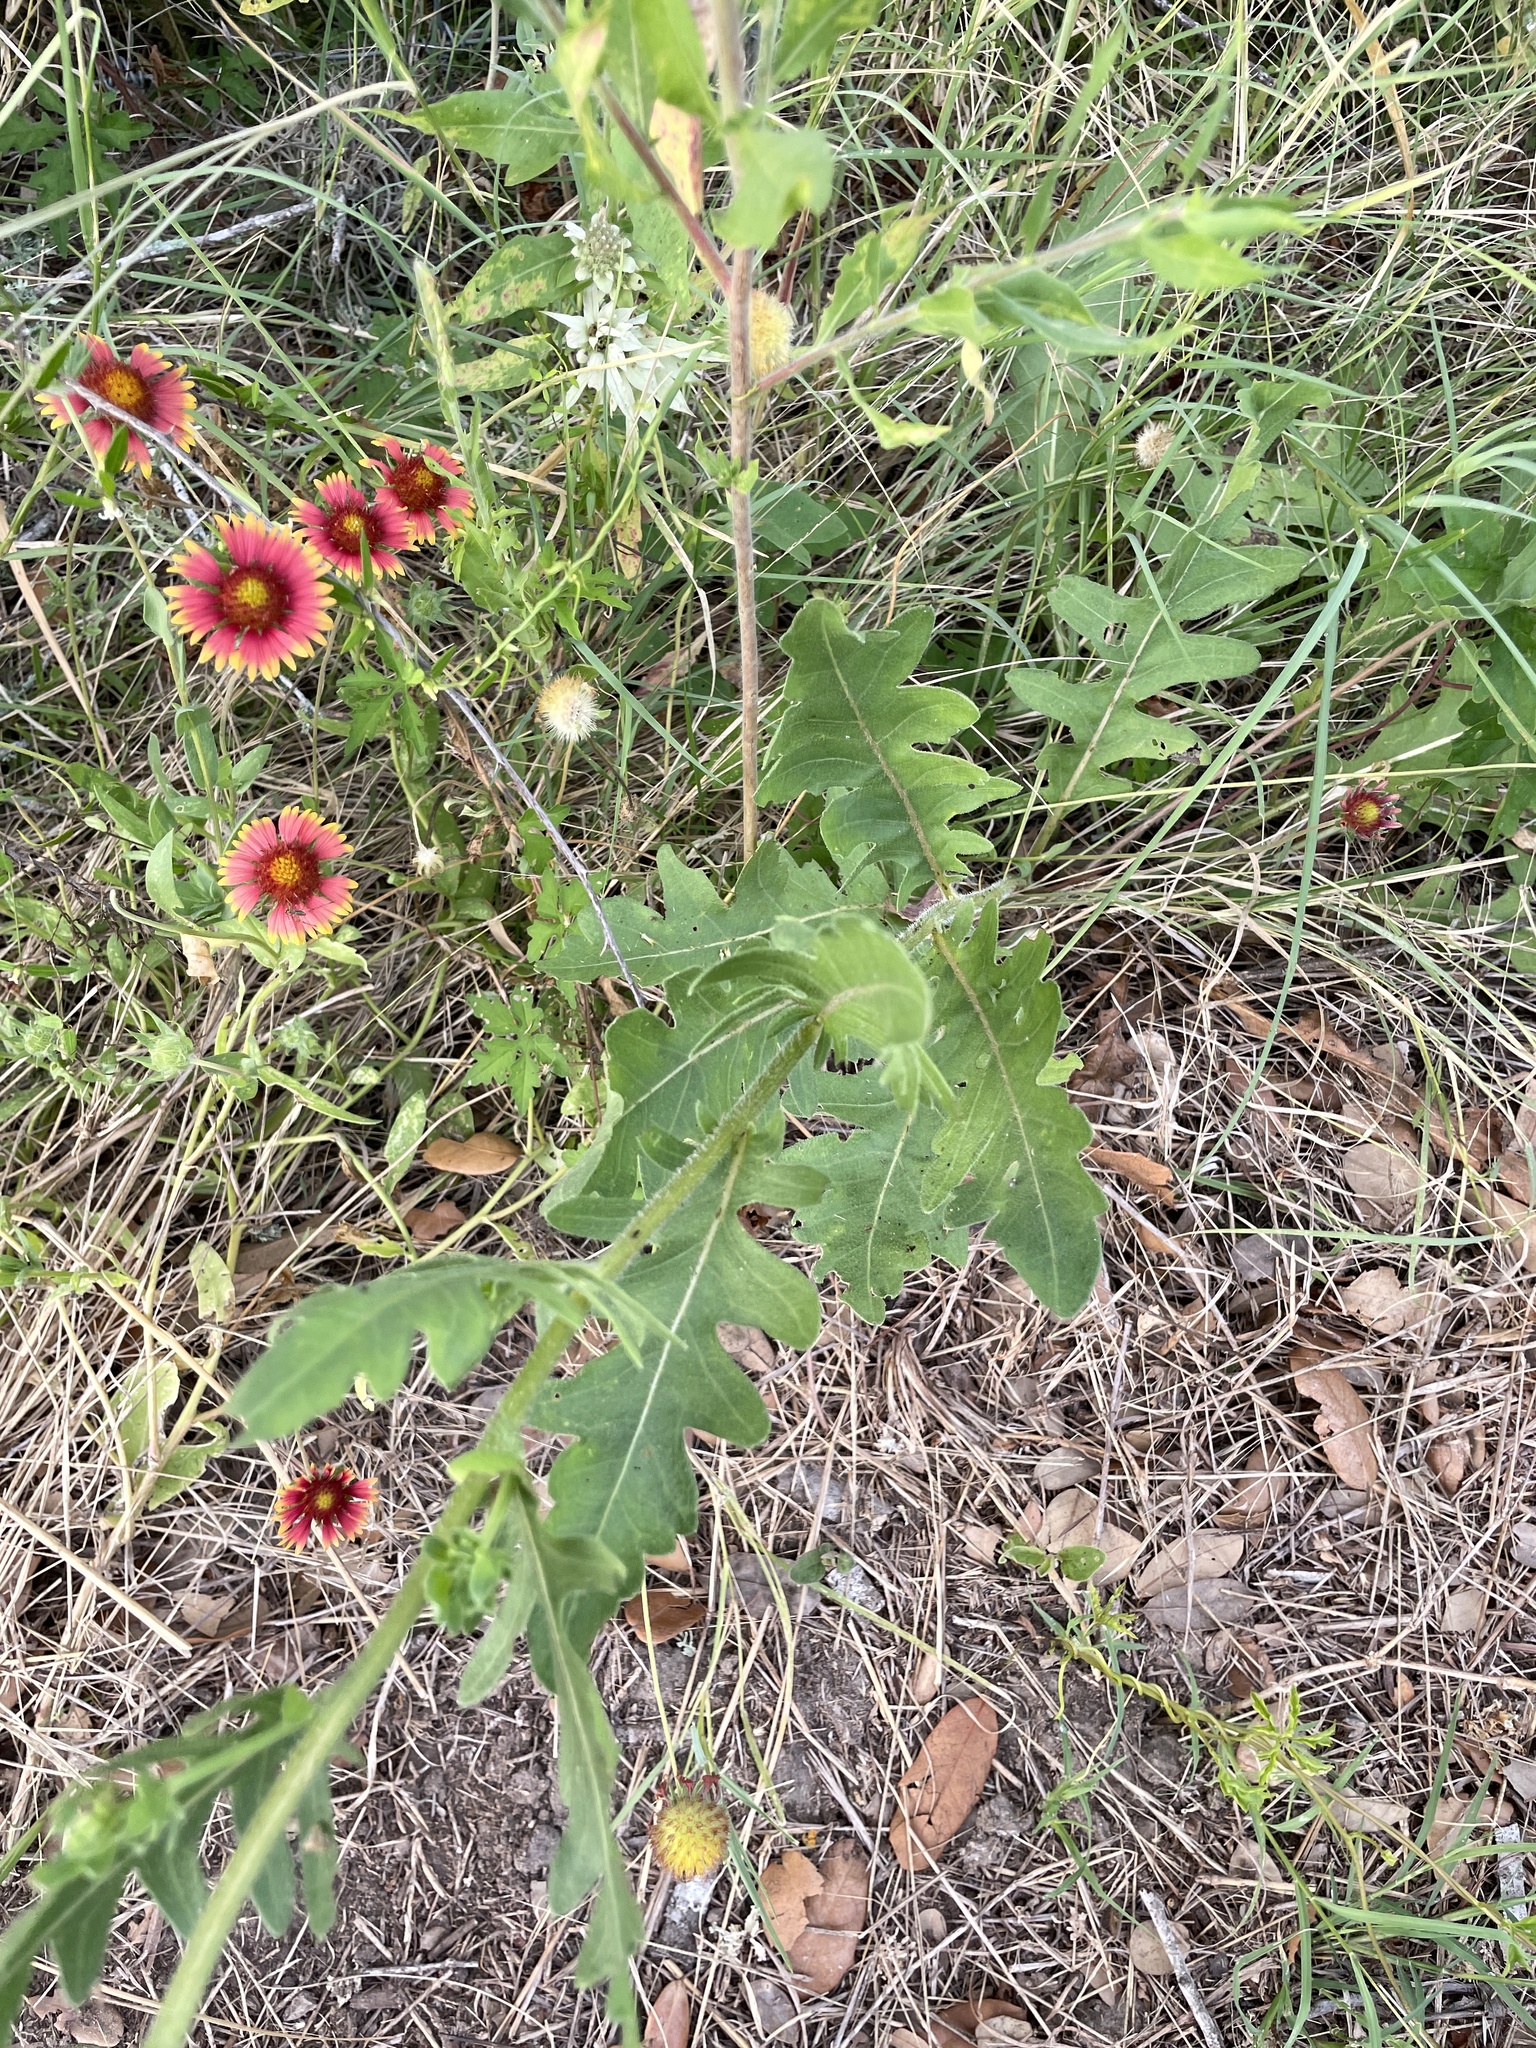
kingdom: Plantae
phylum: Tracheophyta
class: Magnoliopsida
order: Asterales
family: Asteraceae
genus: Engelmannia
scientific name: Engelmannia peristenia
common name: Engelmann's daisy
